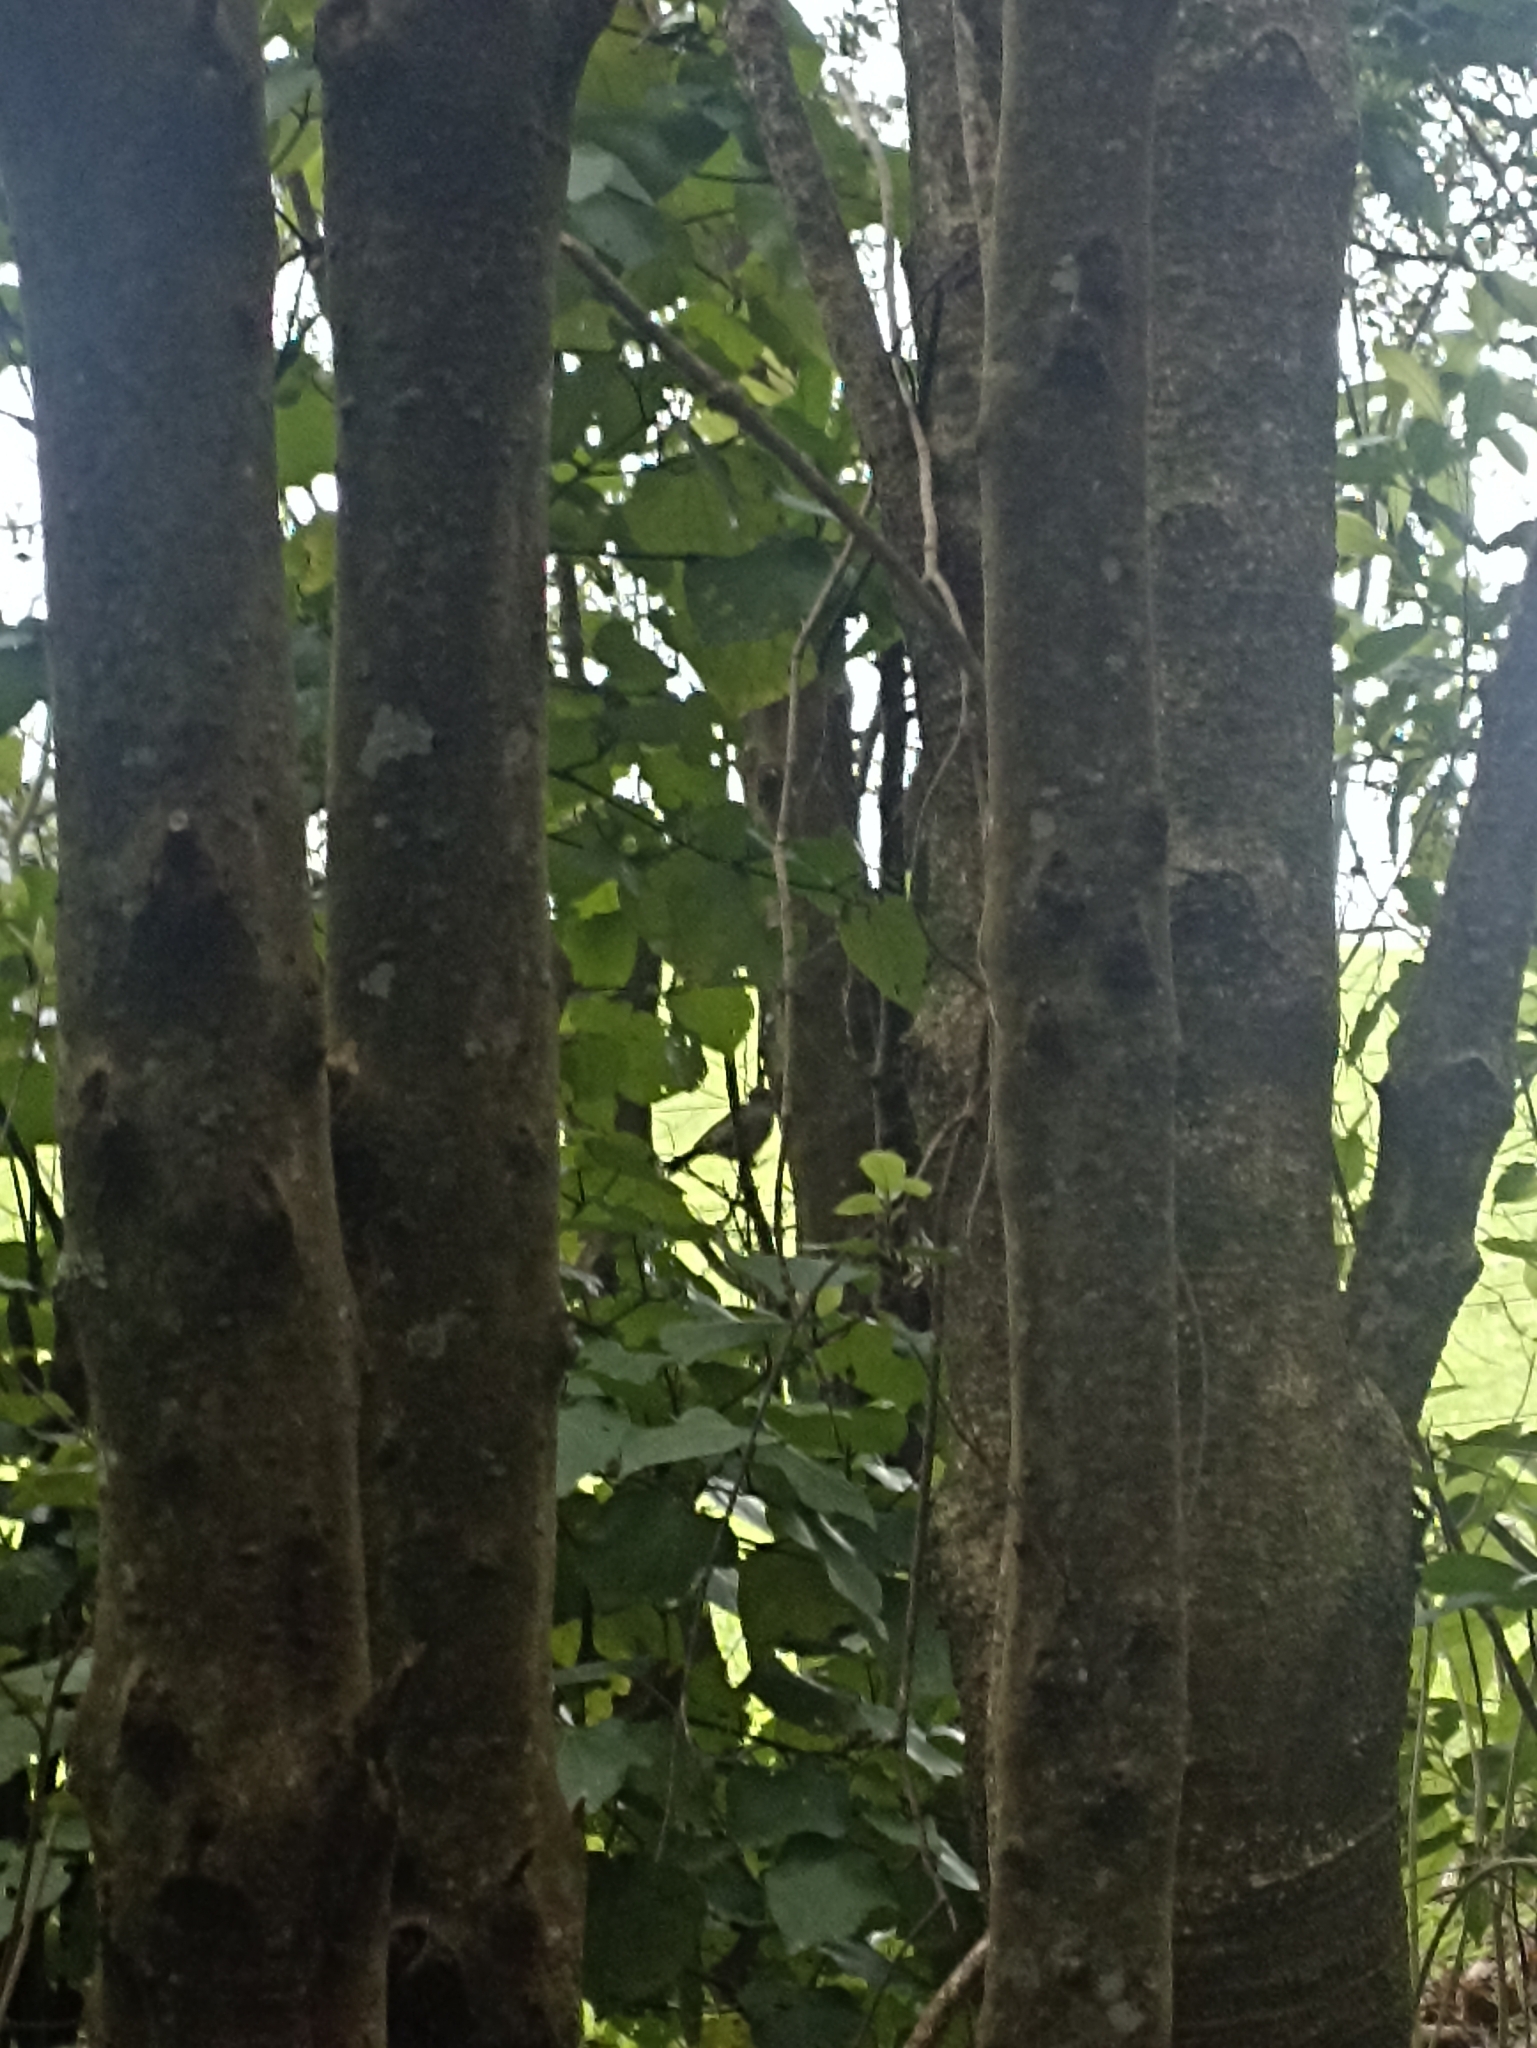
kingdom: Animalia
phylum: Chordata
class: Aves
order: Passeriformes
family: Prunellidae
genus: Prunella
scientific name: Prunella modularis
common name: Dunnock
